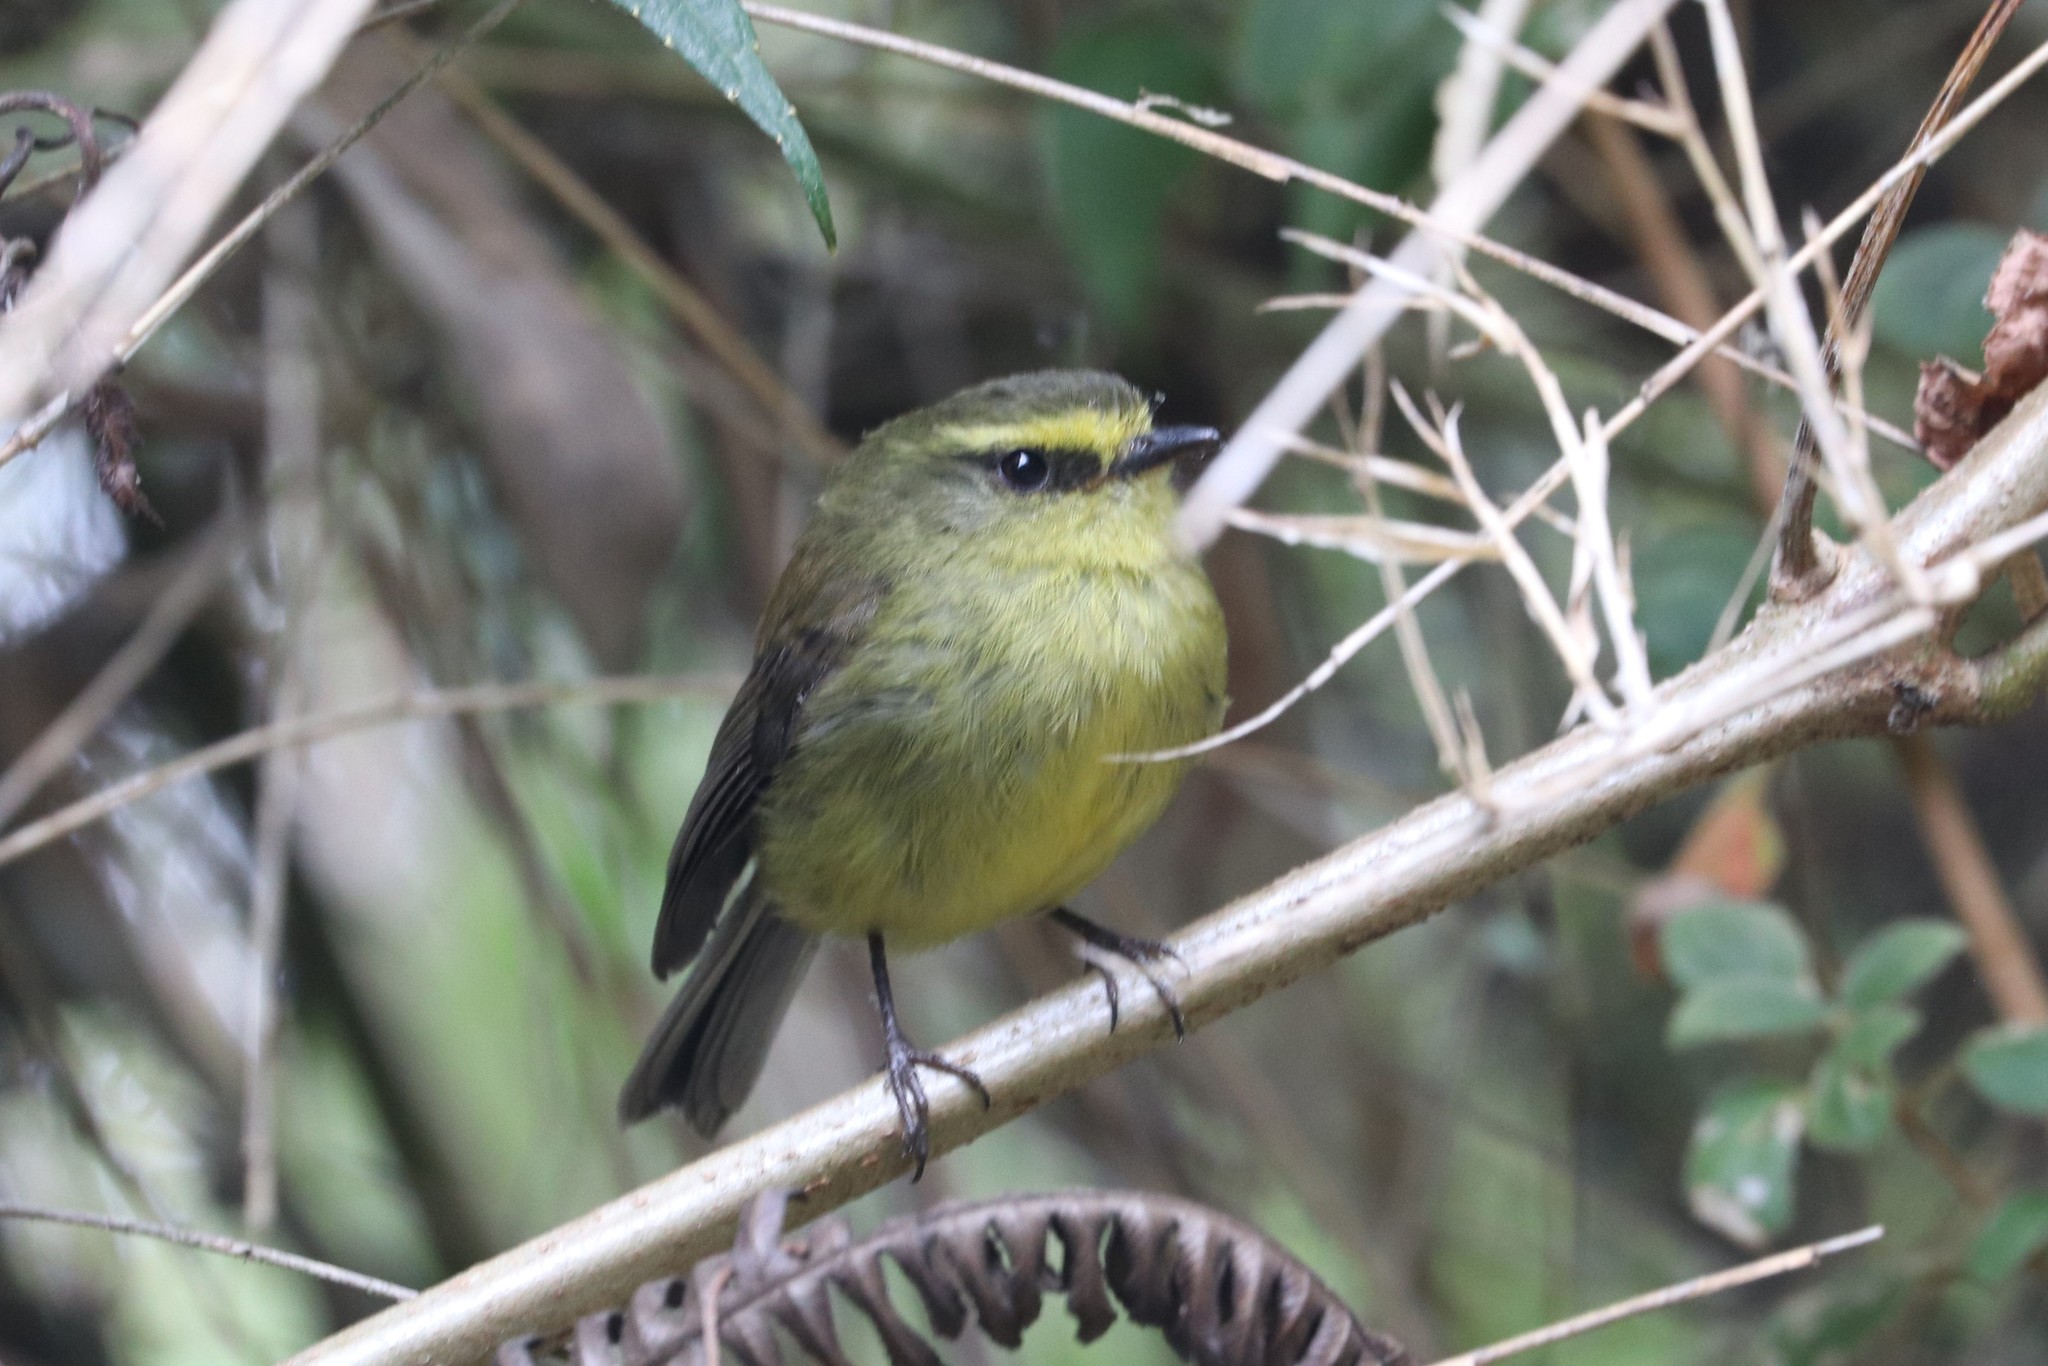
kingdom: Animalia
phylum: Chordata
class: Aves
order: Passeriformes
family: Tyrannidae
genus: Ochthoeca
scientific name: Ochthoeca diadema
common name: Yellow-bellied chat-tyrant
